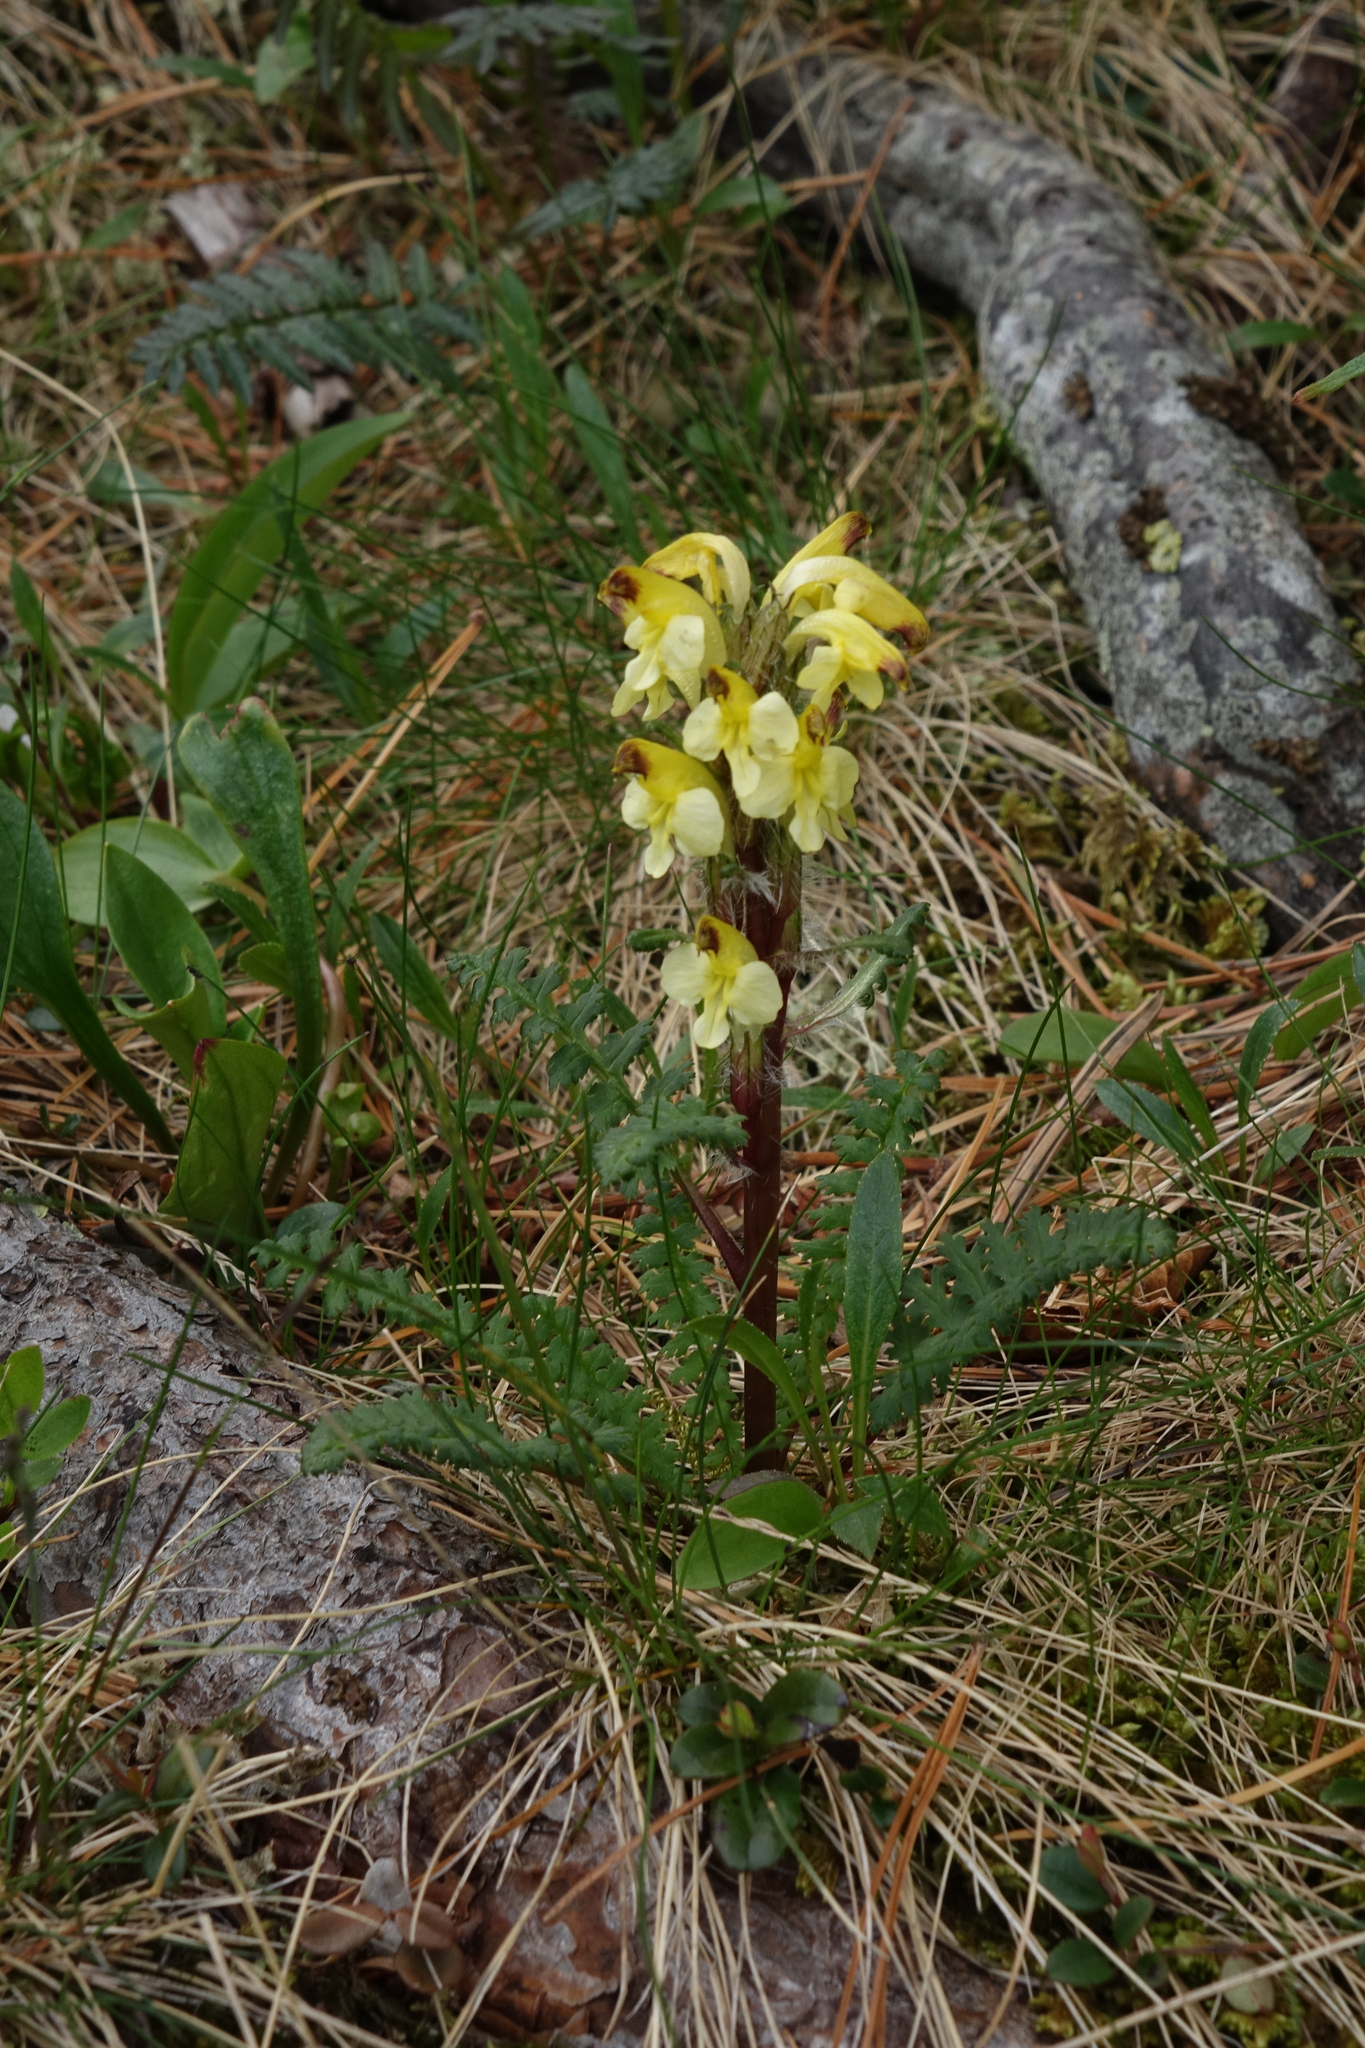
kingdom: Plantae
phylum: Tracheophyta
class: Magnoliopsida
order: Lamiales
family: Orobanchaceae
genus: Pedicularis
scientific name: Pedicularis oederi
